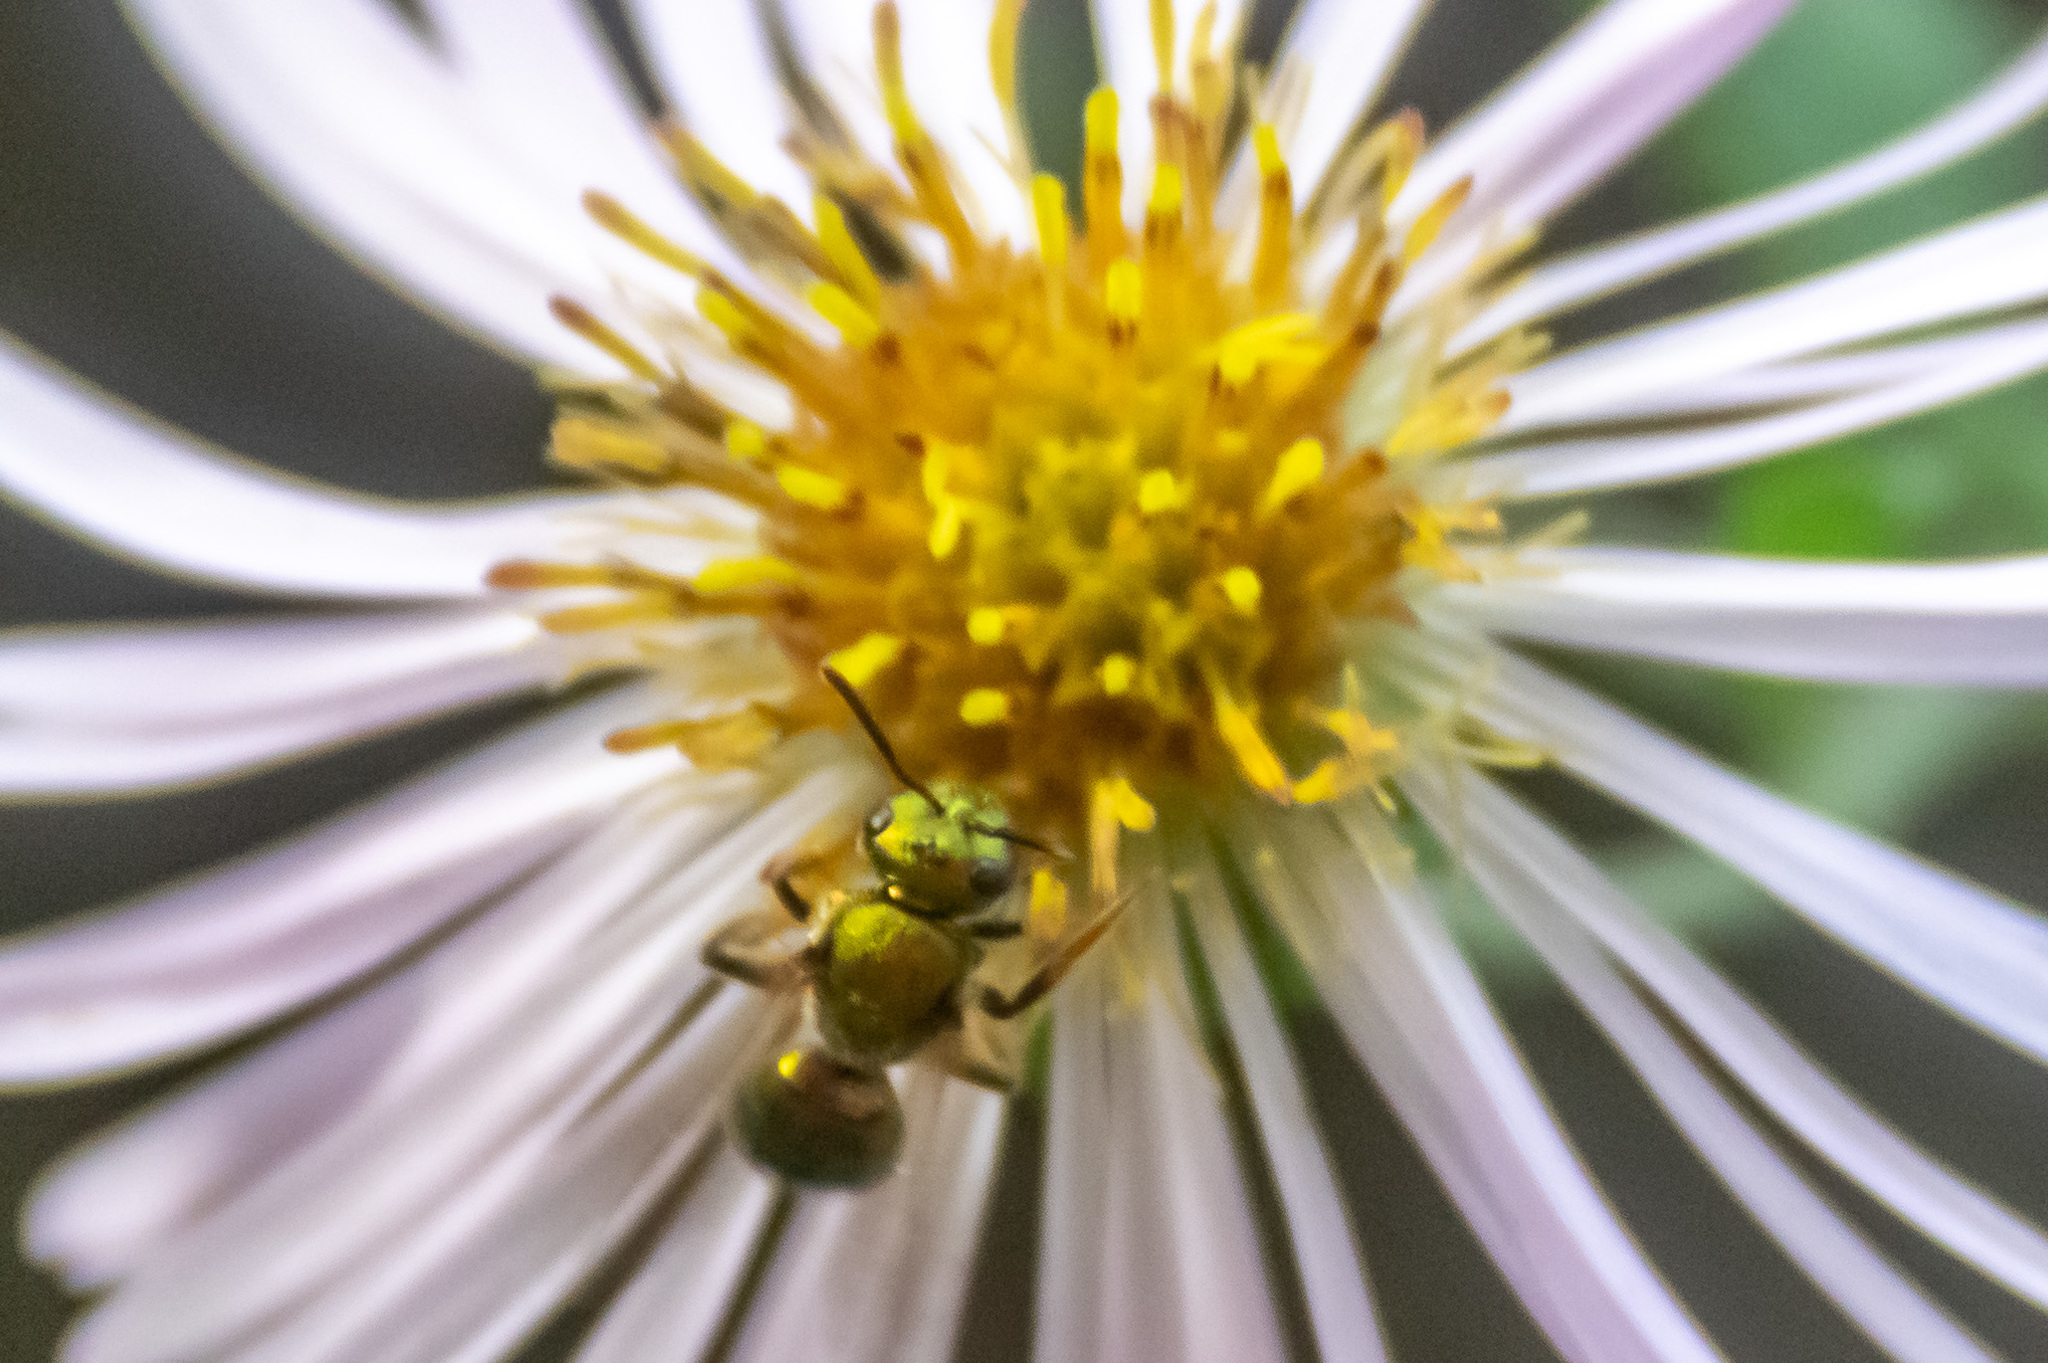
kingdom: Animalia
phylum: Arthropoda
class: Insecta
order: Hymenoptera
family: Halictidae
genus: Augochlora
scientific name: Augochlora pura
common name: Pure green sweat bee
